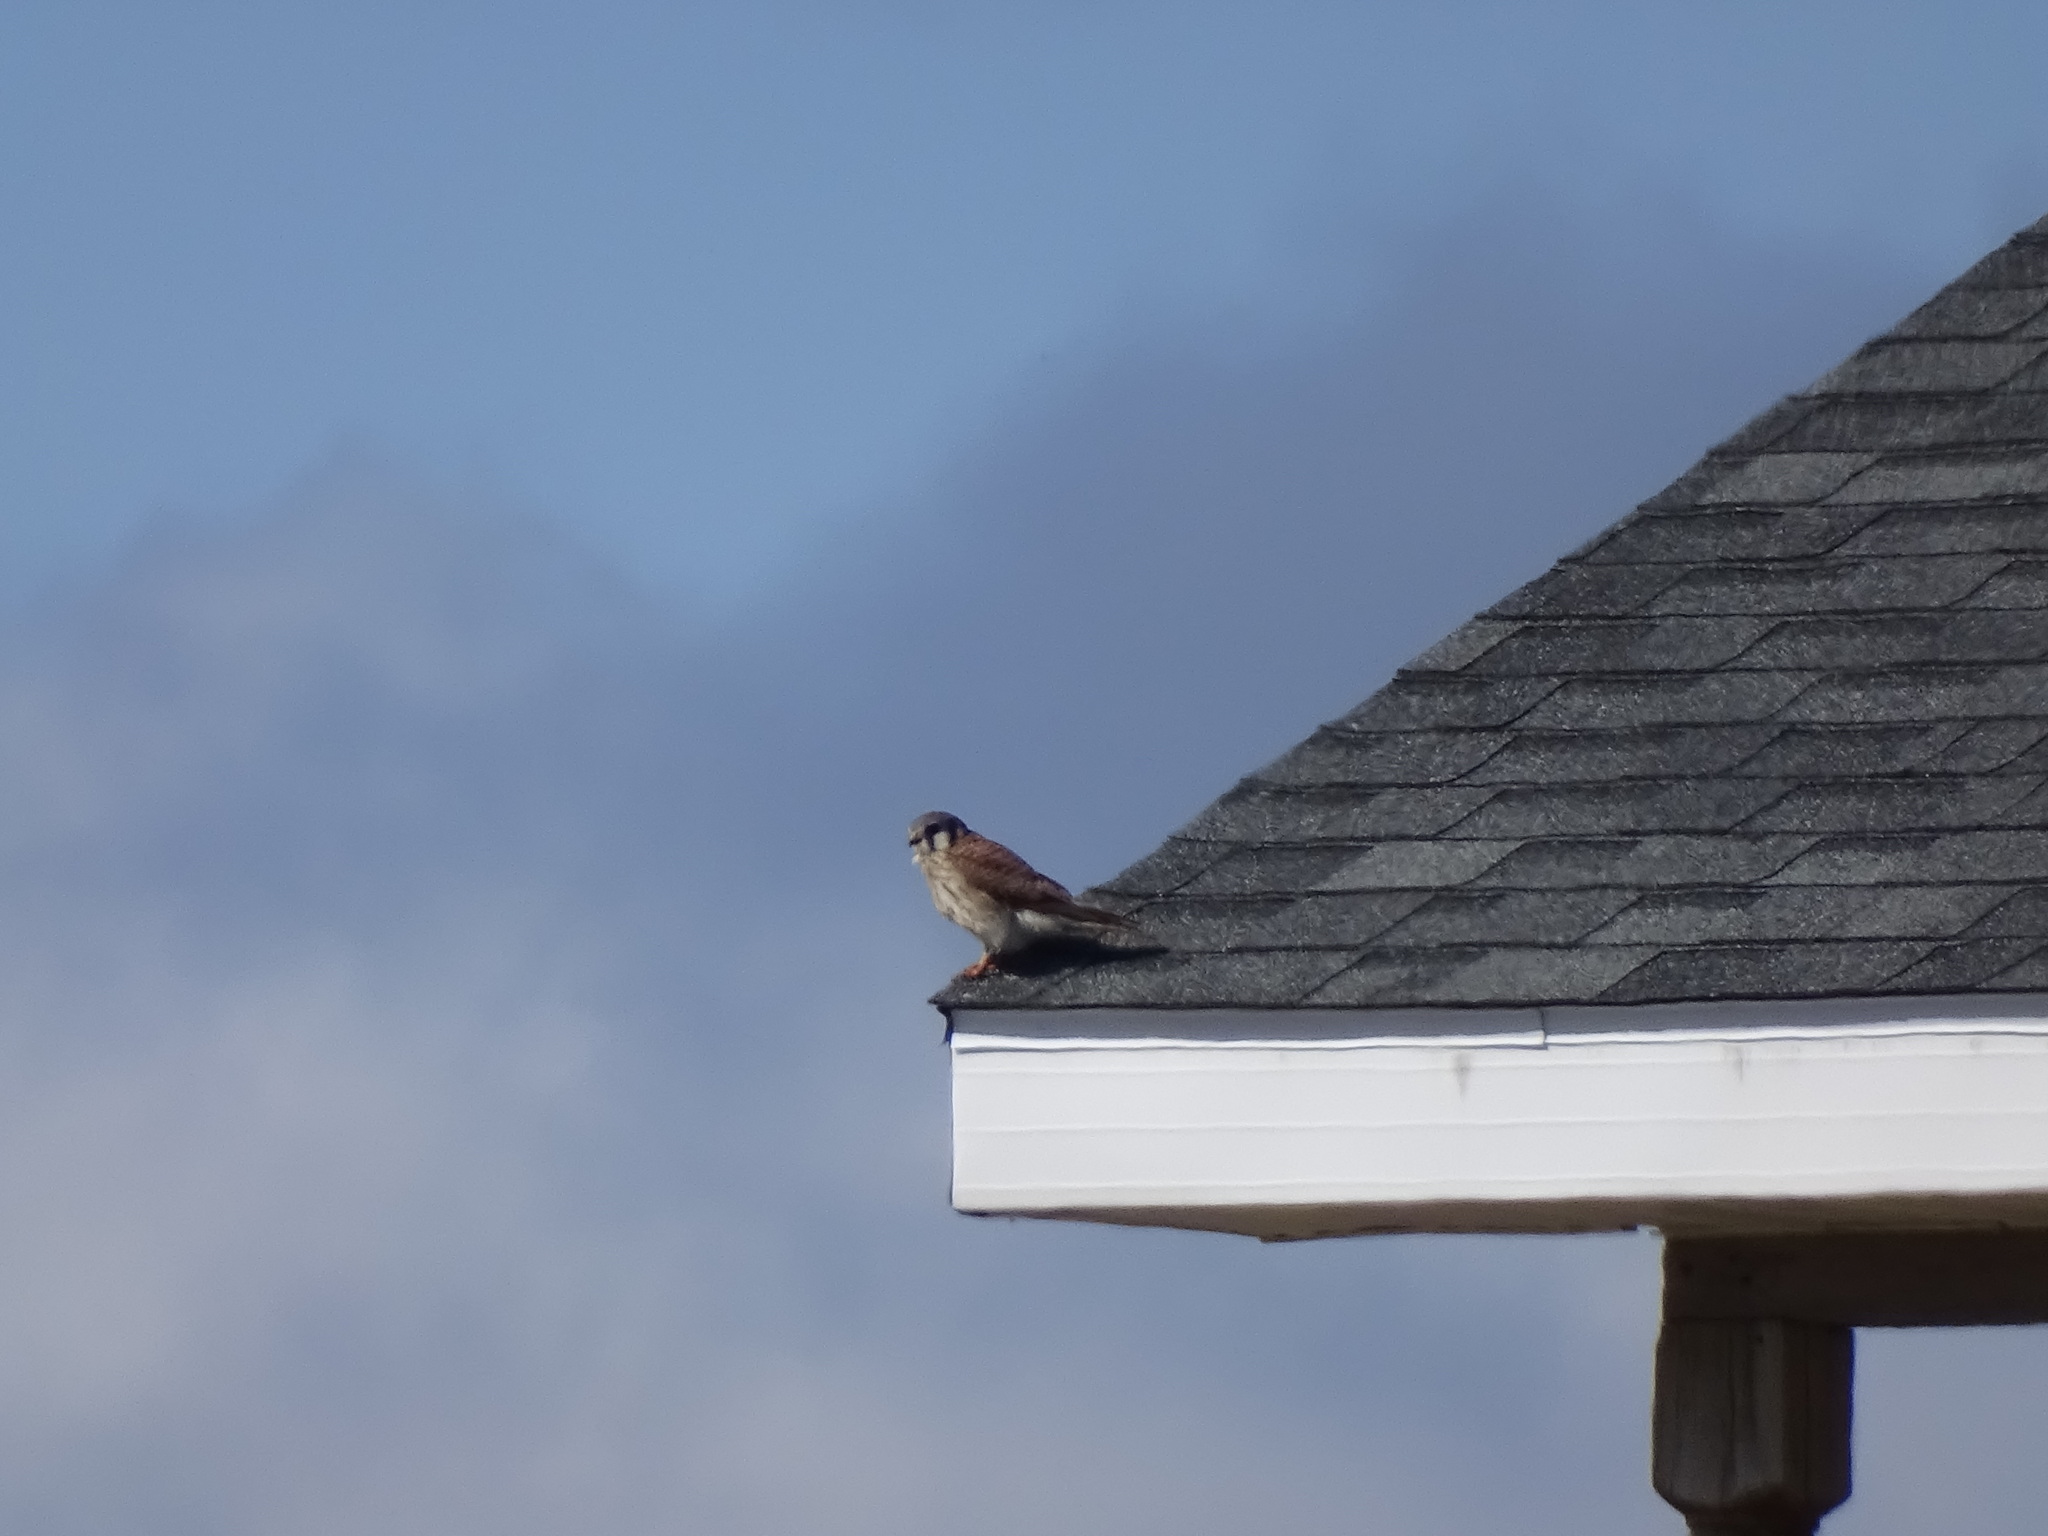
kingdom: Animalia
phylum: Chordata
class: Aves
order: Falconiformes
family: Falconidae
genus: Falco
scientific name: Falco sparverius
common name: American kestrel
